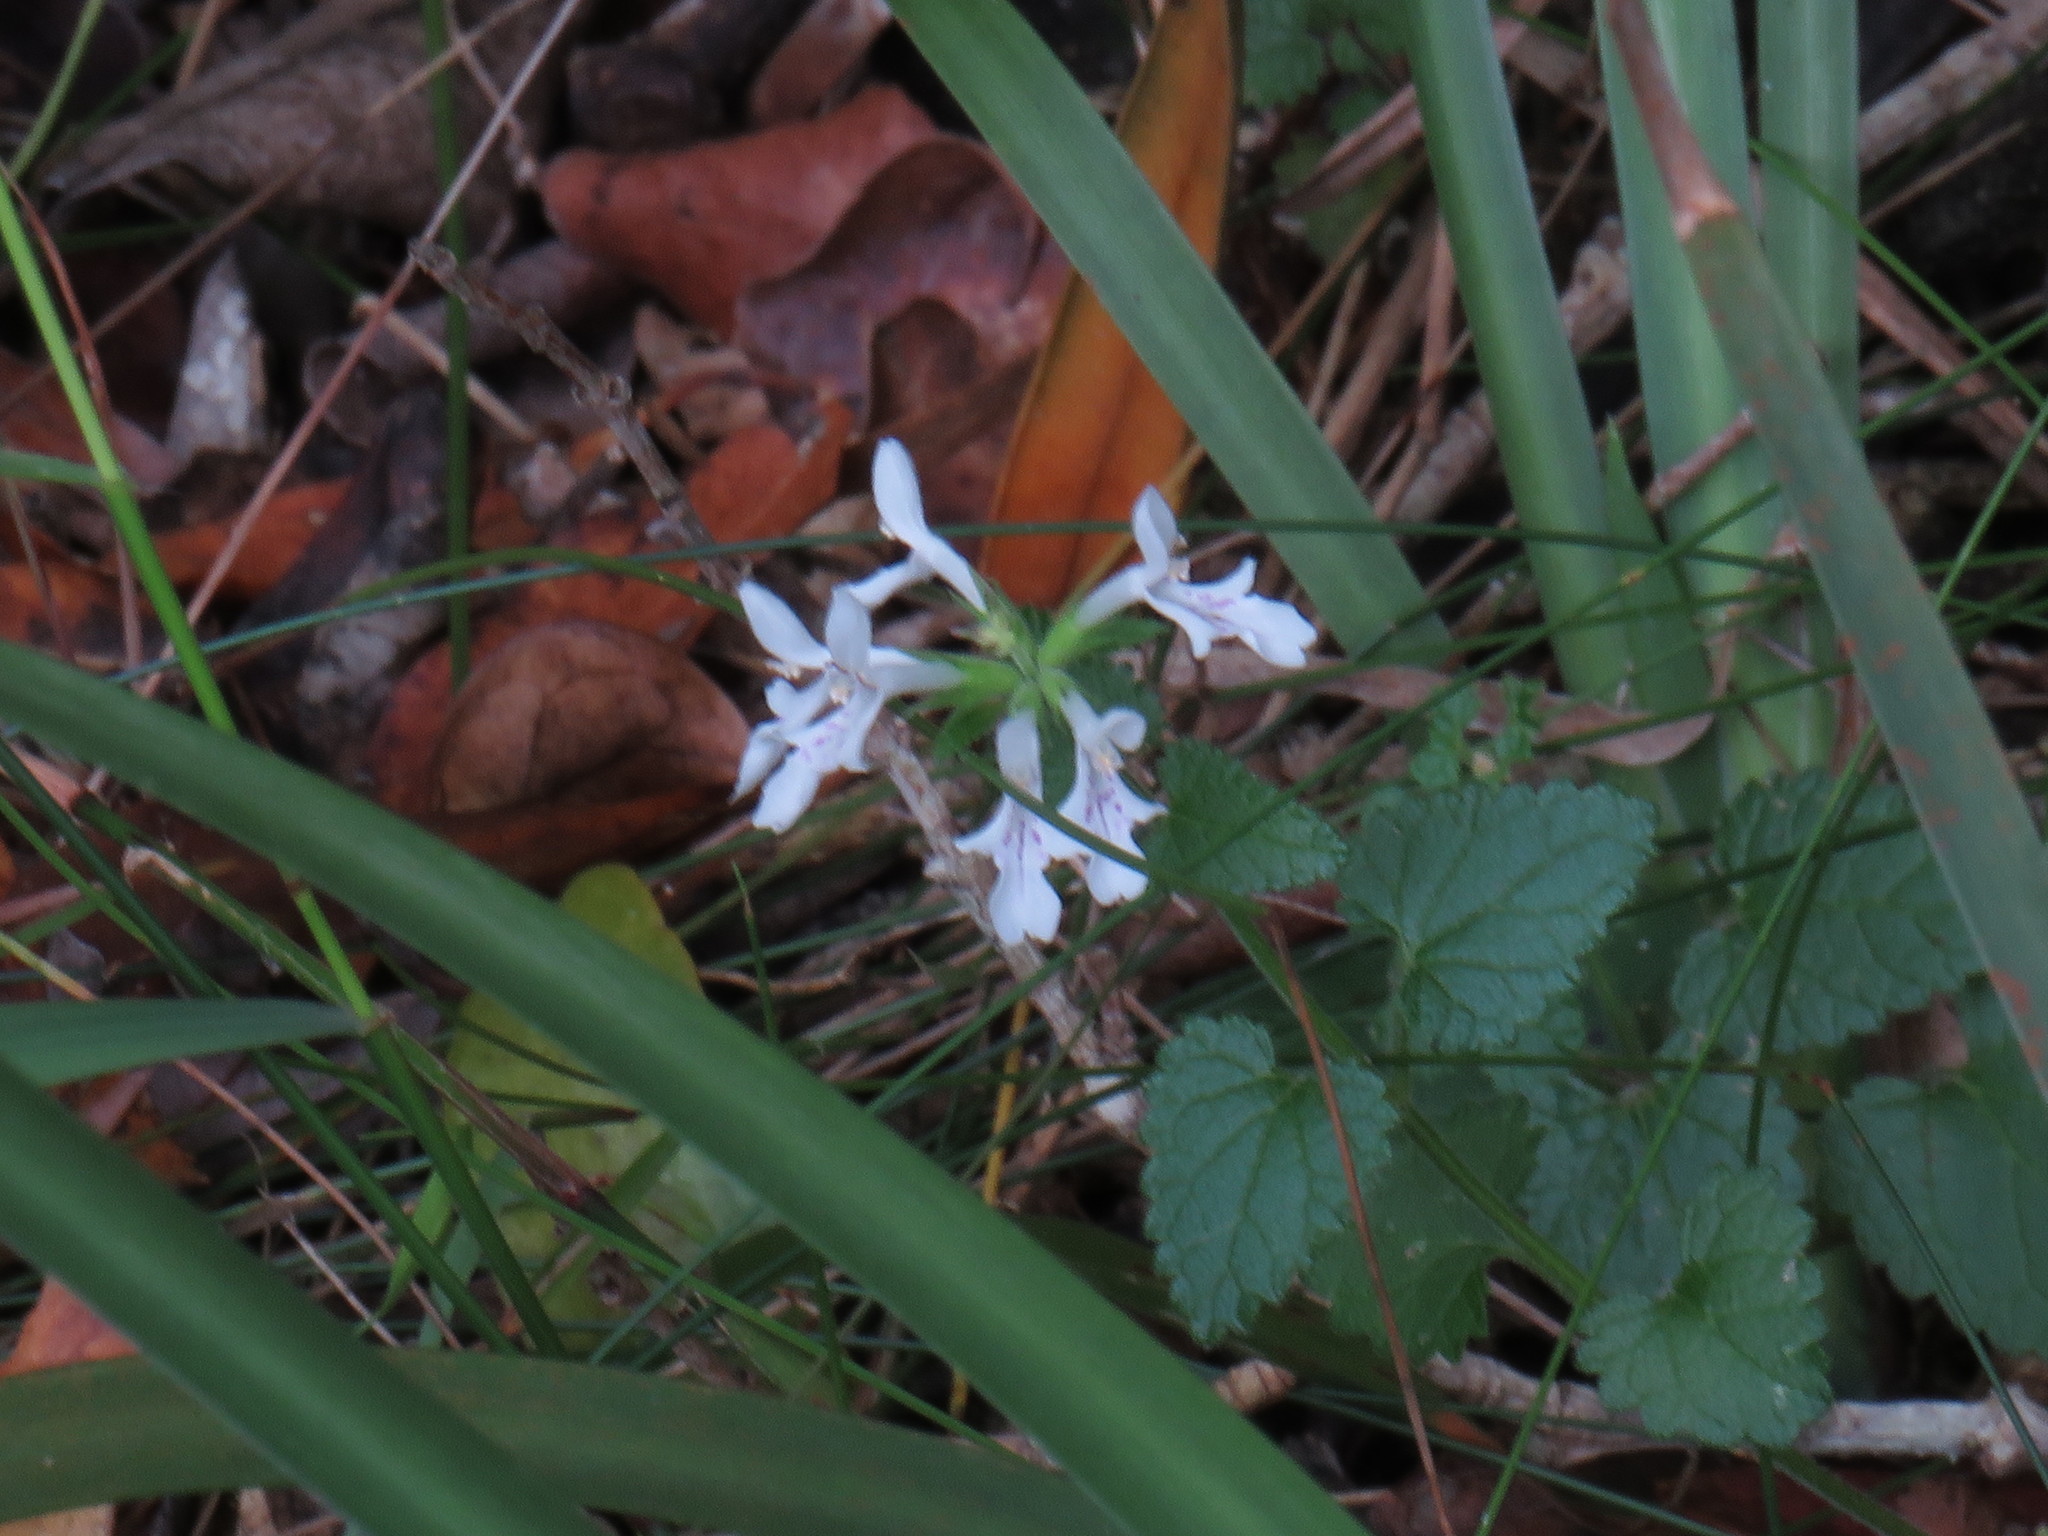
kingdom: Plantae
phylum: Tracheophyta
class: Magnoliopsida
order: Lamiales
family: Lamiaceae
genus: Stachys
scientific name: Stachys aethiopica
